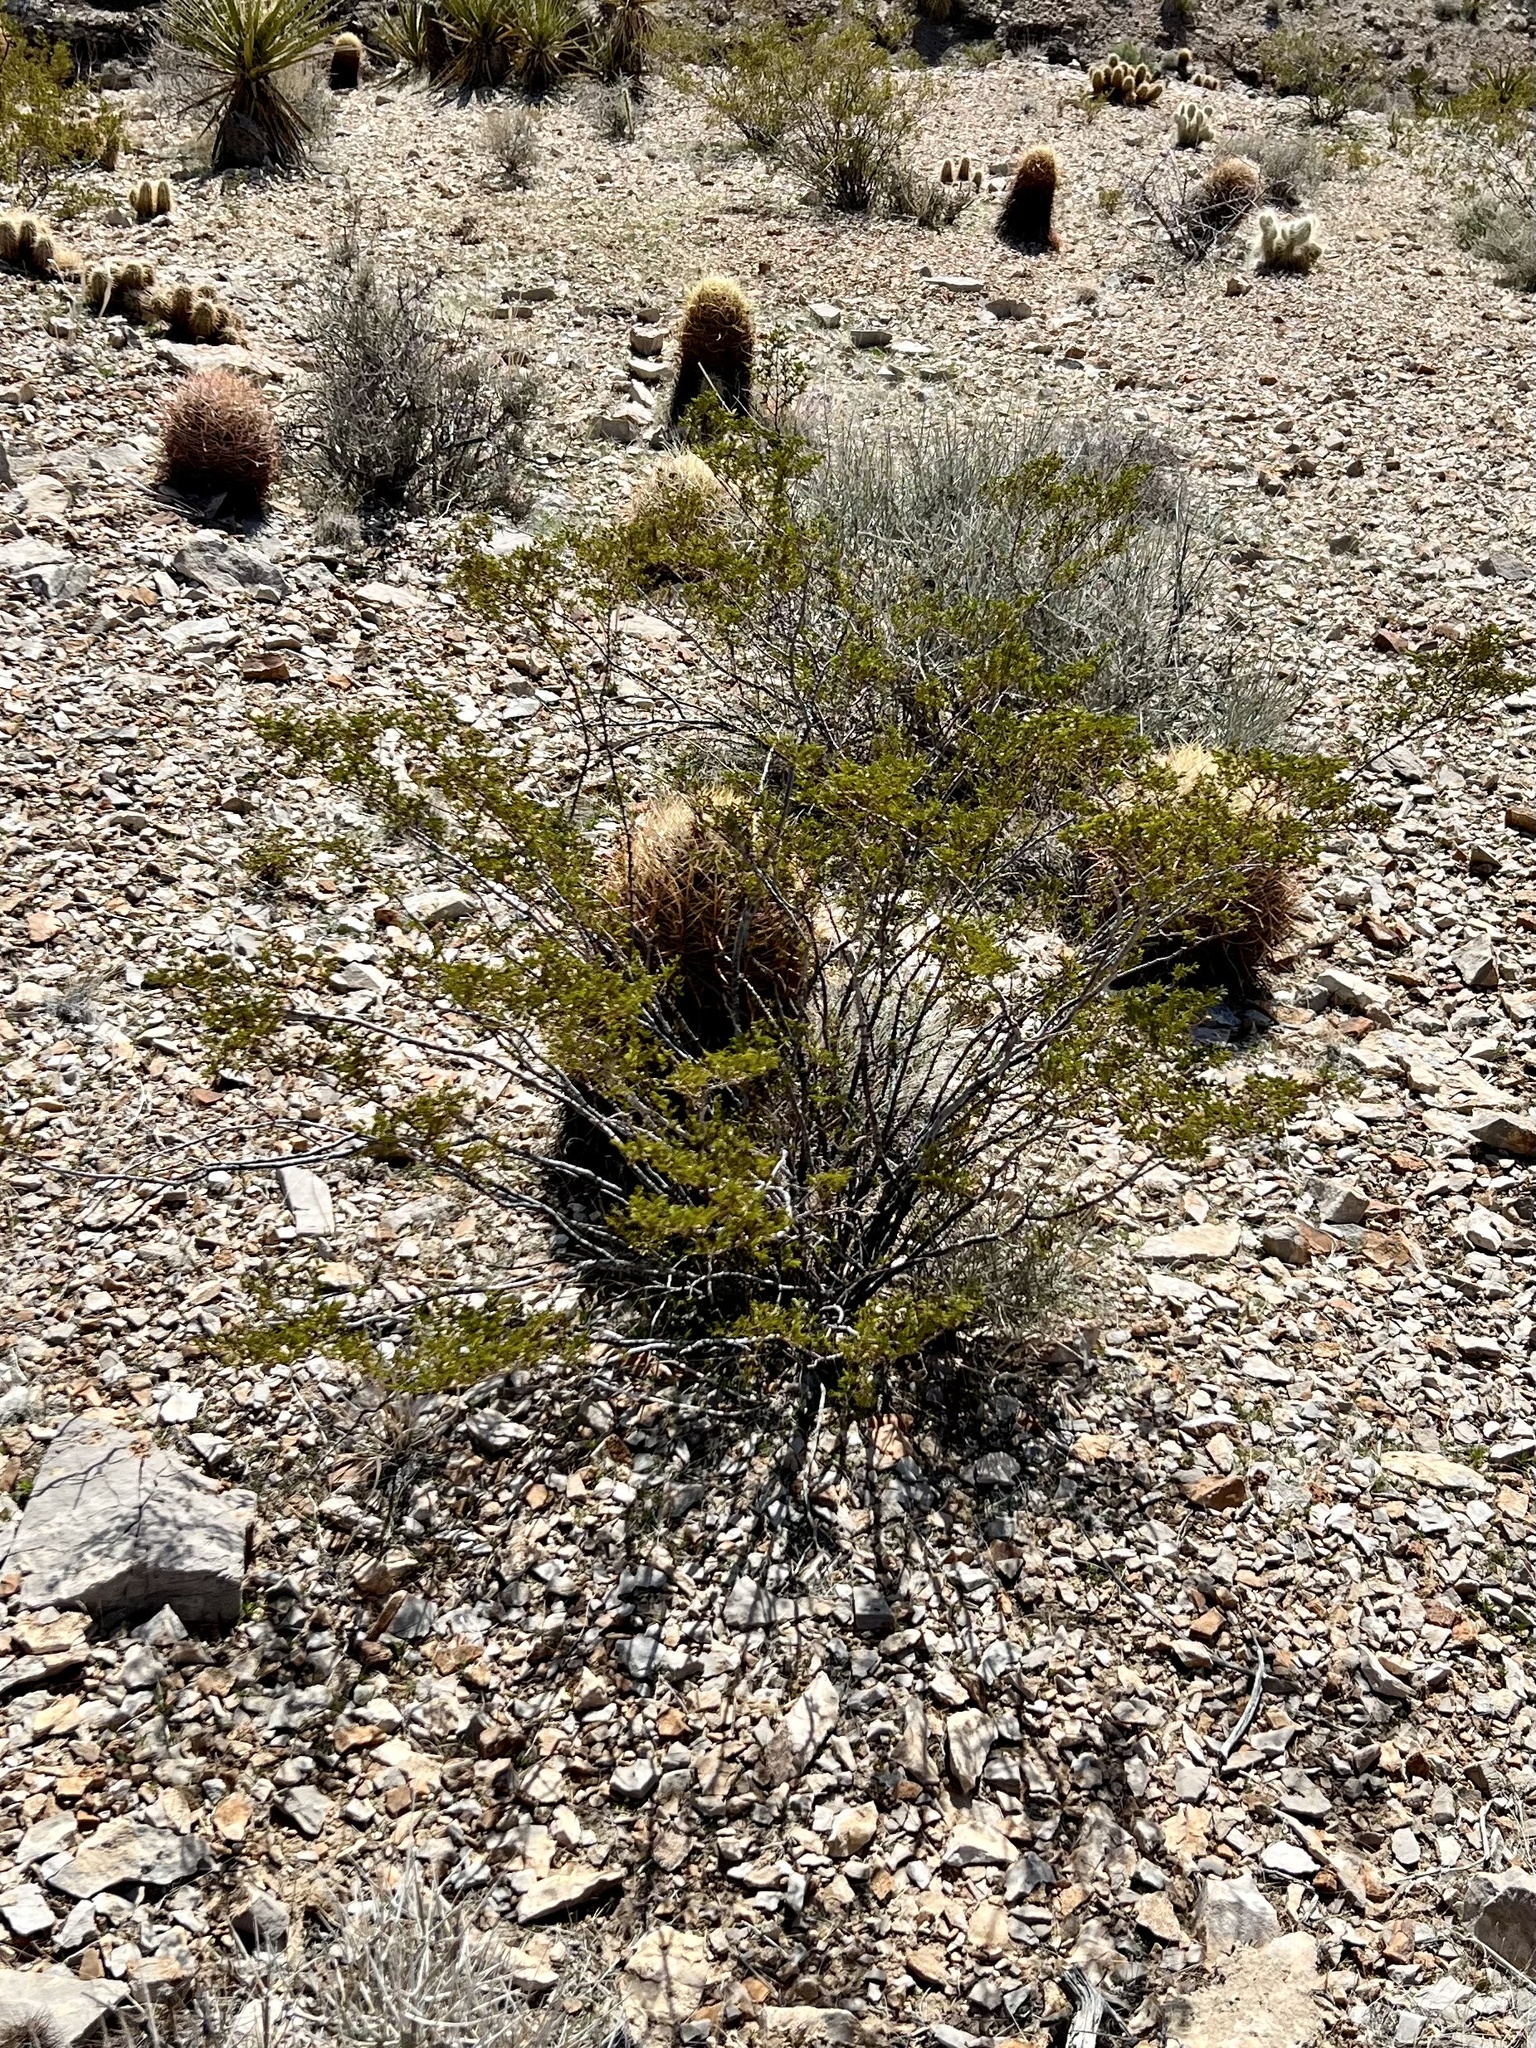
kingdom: Plantae
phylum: Tracheophyta
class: Magnoliopsida
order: Zygophyllales
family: Zygophyllaceae
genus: Larrea
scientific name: Larrea tridentata
